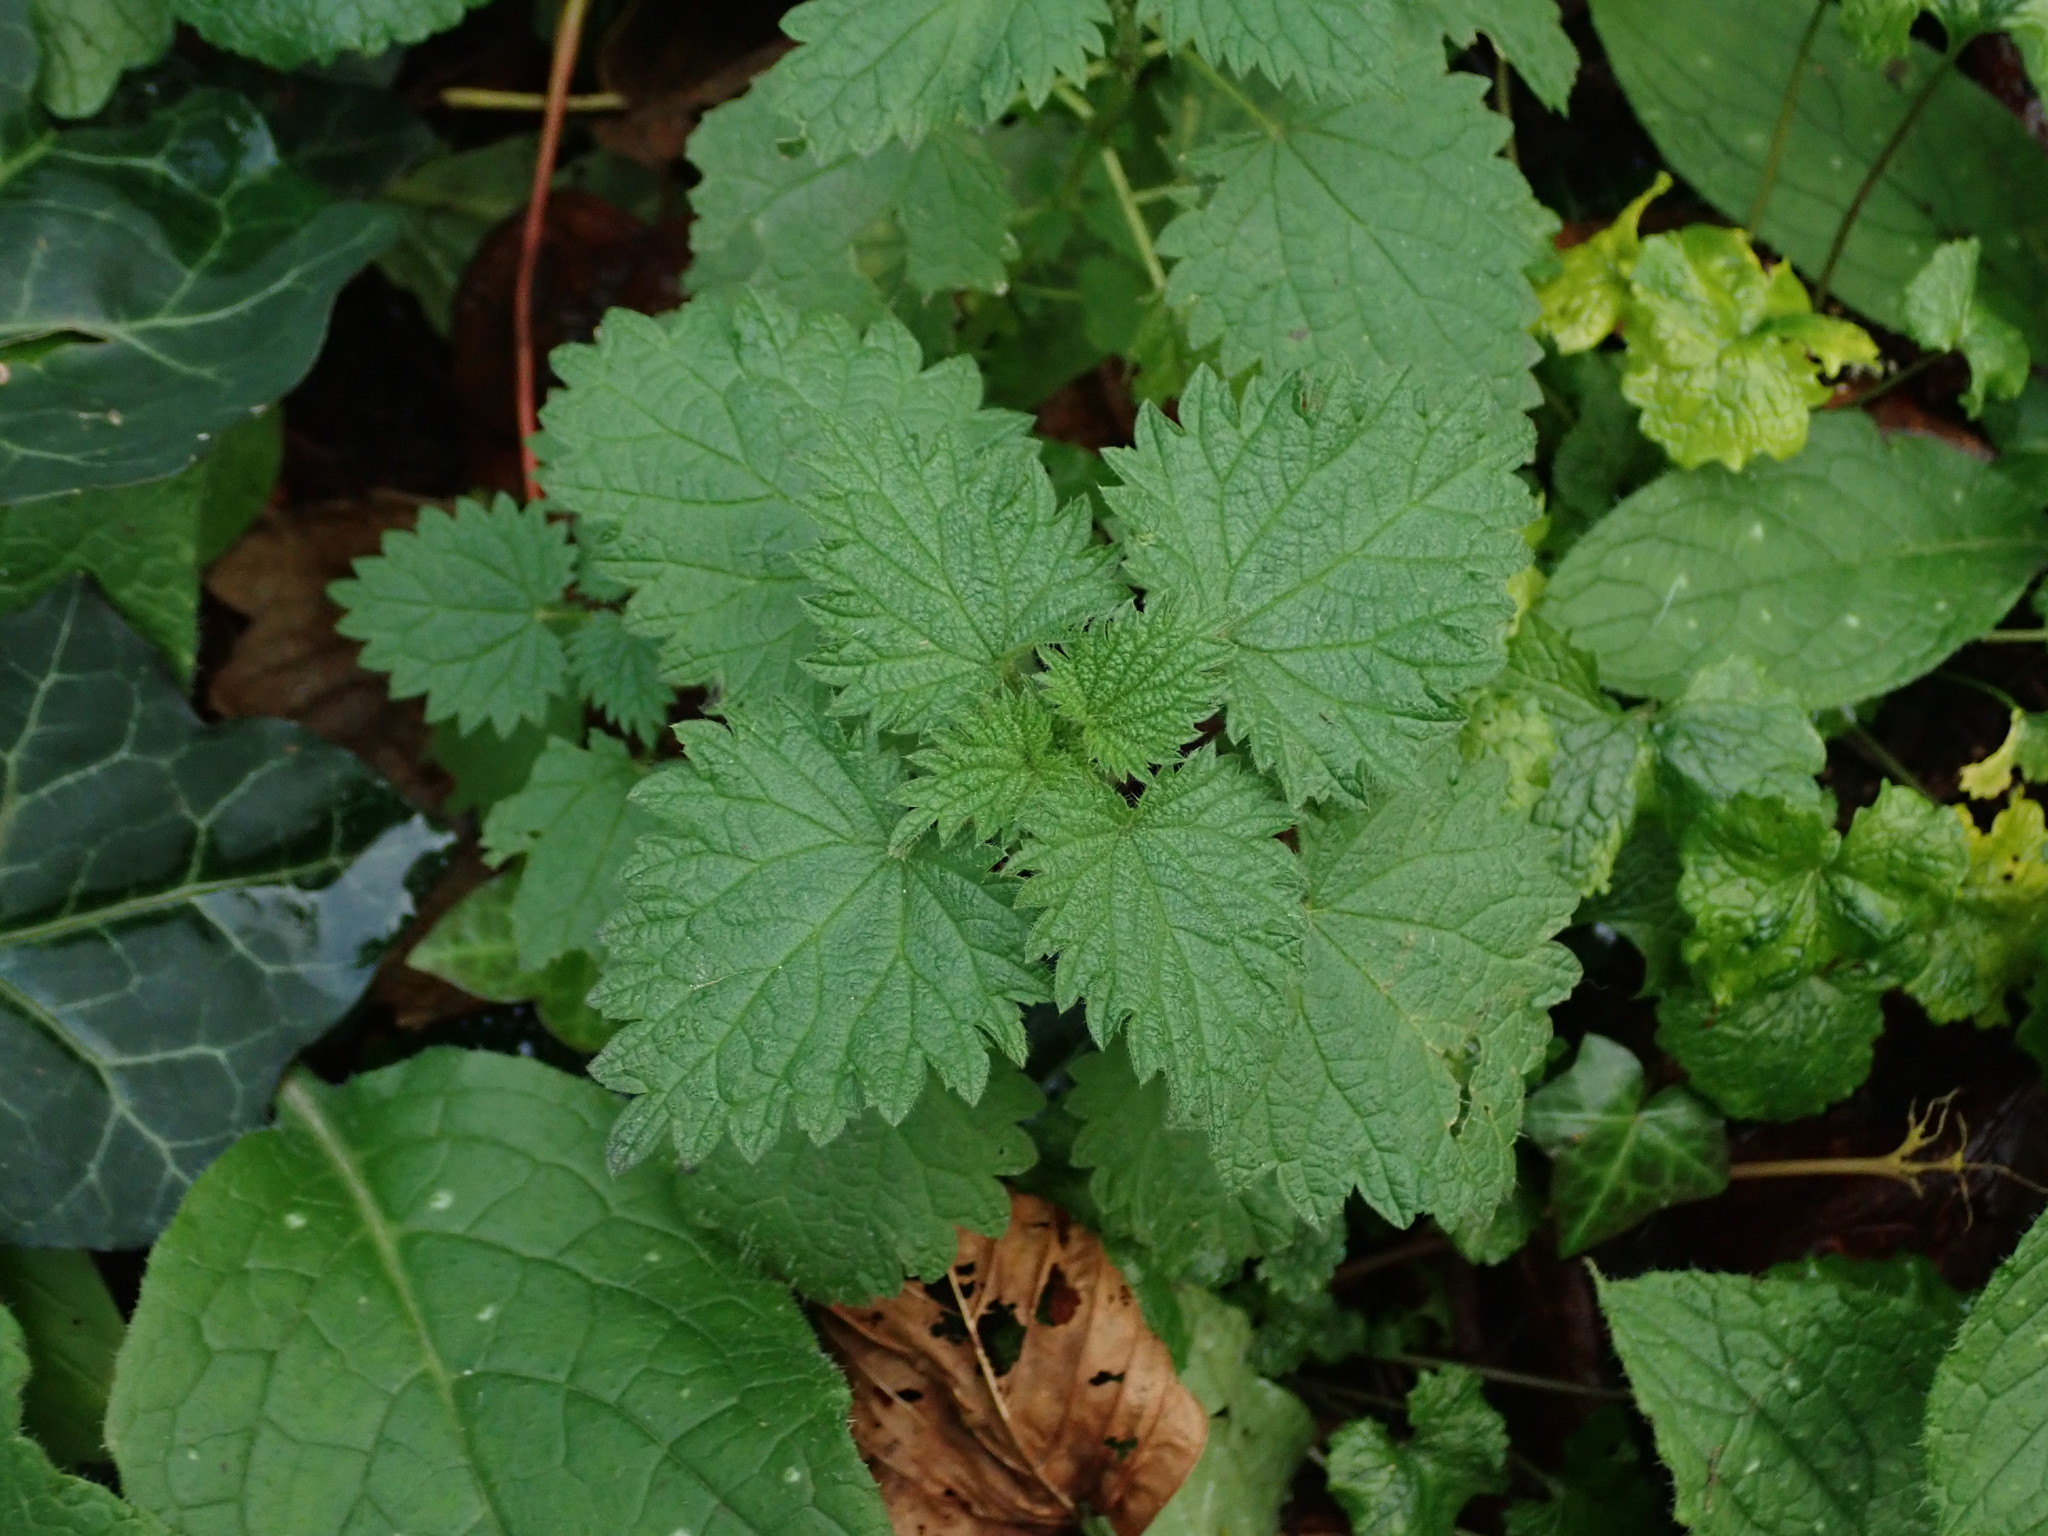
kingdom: Plantae
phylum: Tracheophyta
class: Magnoliopsida
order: Rosales
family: Urticaceae
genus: Urtica
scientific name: Urtica dioica
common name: Common nettle
